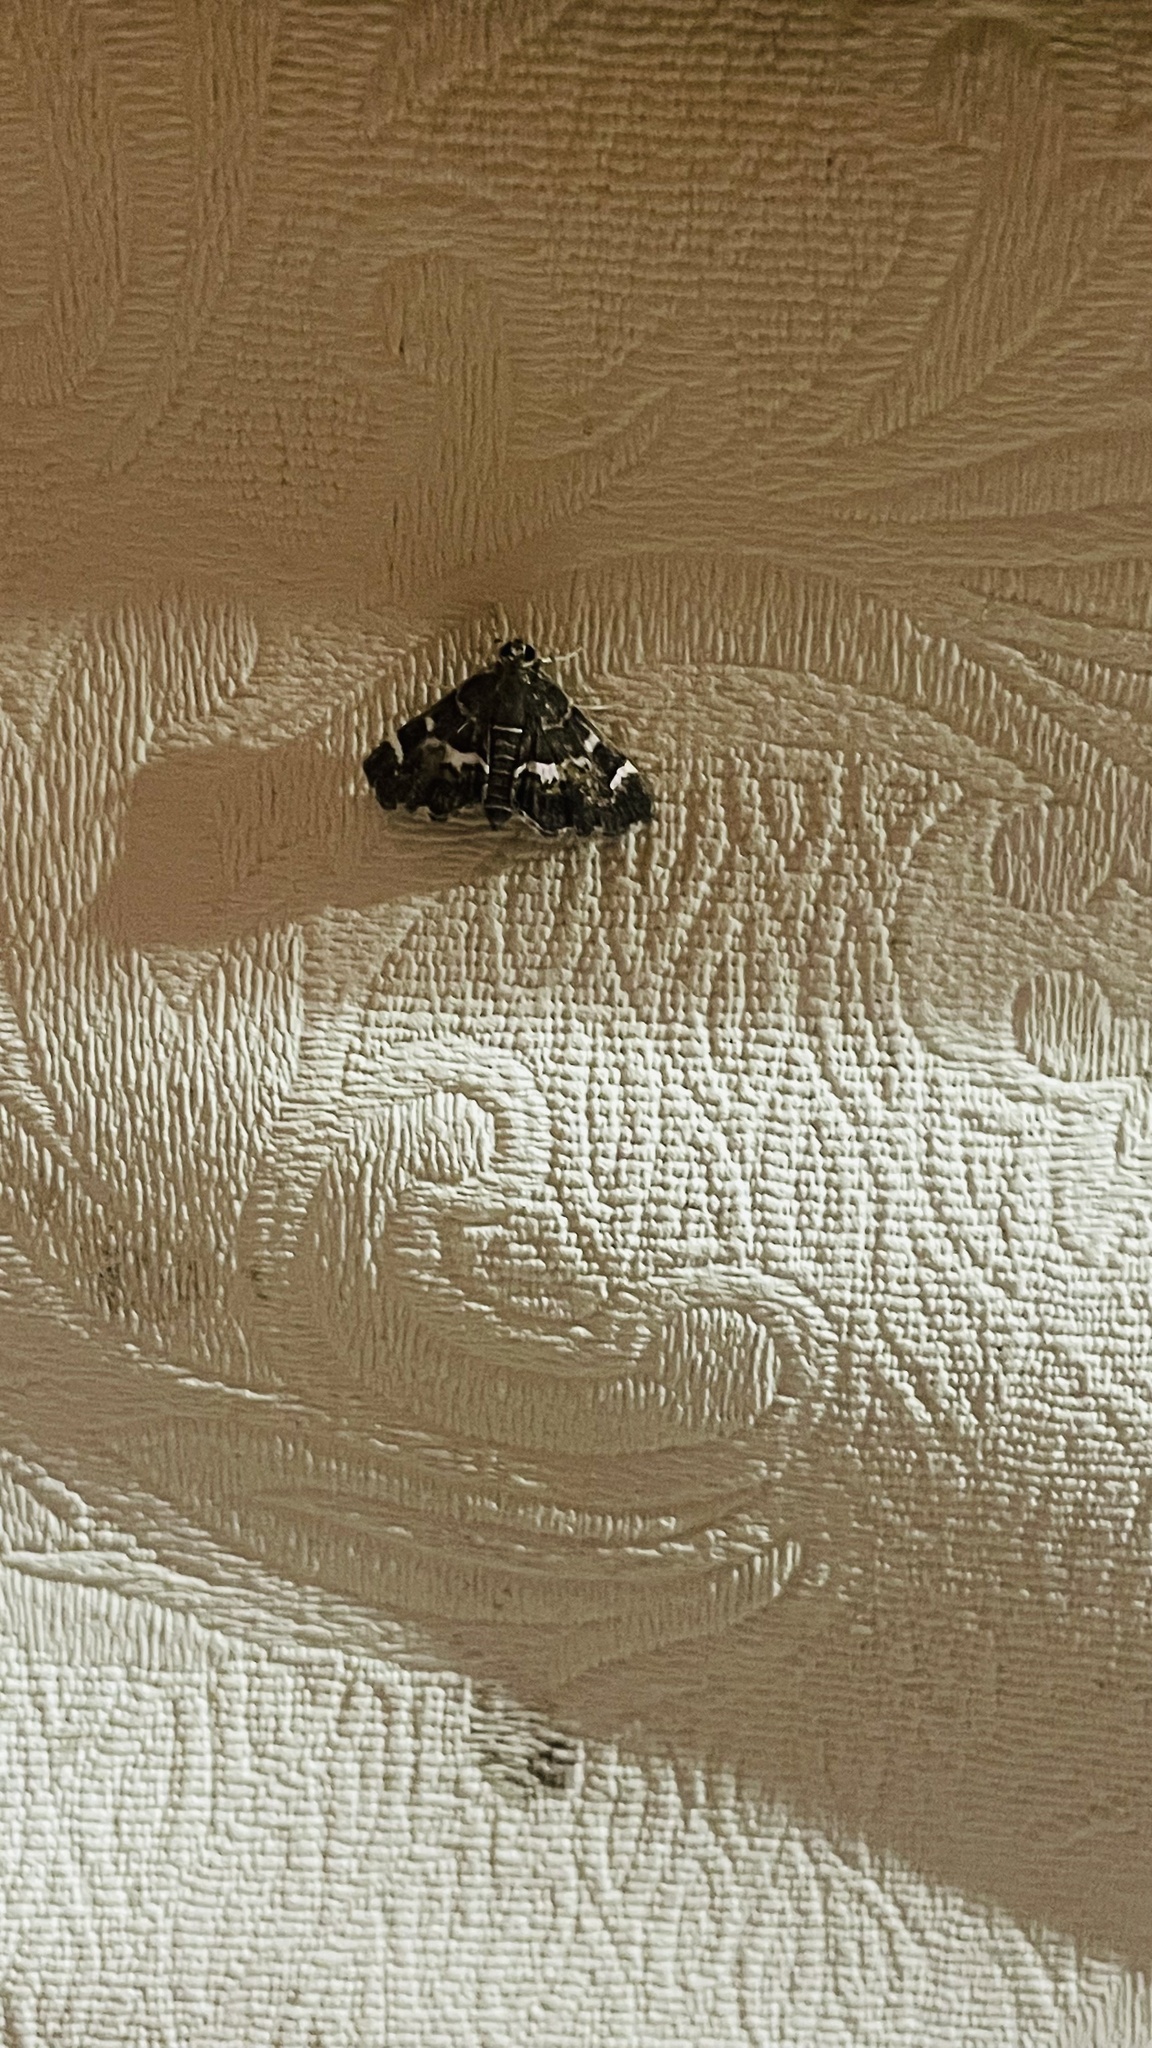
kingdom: Animalia
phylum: Arthropoda
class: Insecta
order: Lepidoptera
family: Crambidae
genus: Hymenia
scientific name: Hymenia perspectalis
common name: Spotted beet webworm
